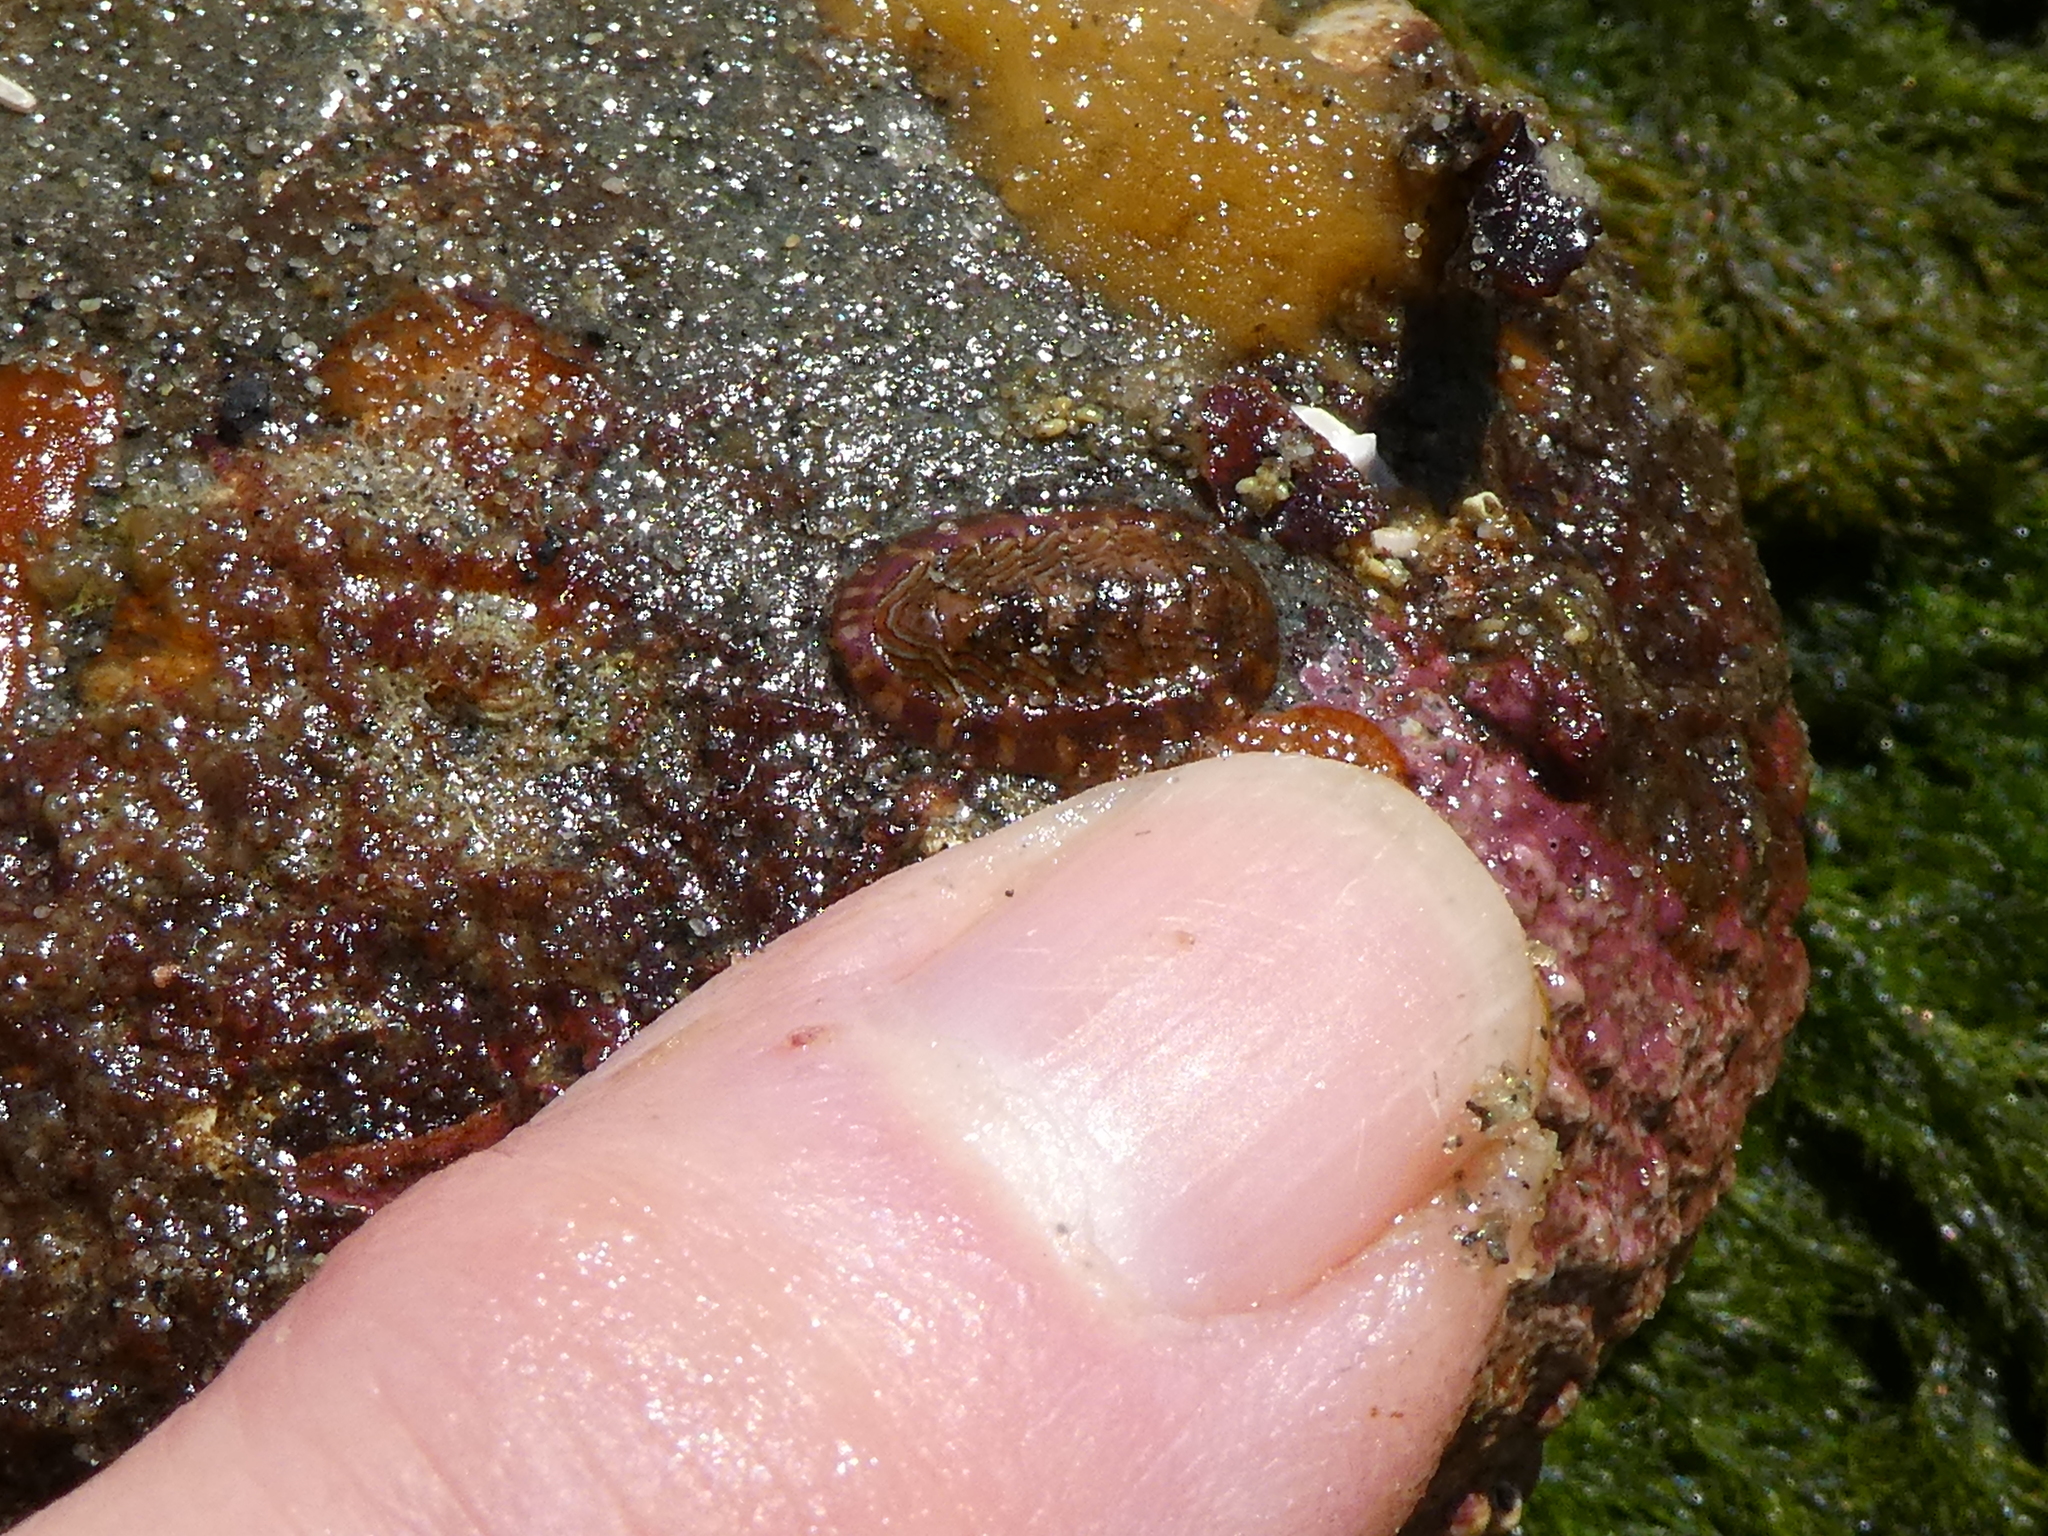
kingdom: Animalia
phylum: Mollusca
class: Polyplacophora
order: Chitonida
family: Tonicellidae
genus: Tonicella
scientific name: Tonicella lineata
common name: Lined chiton
